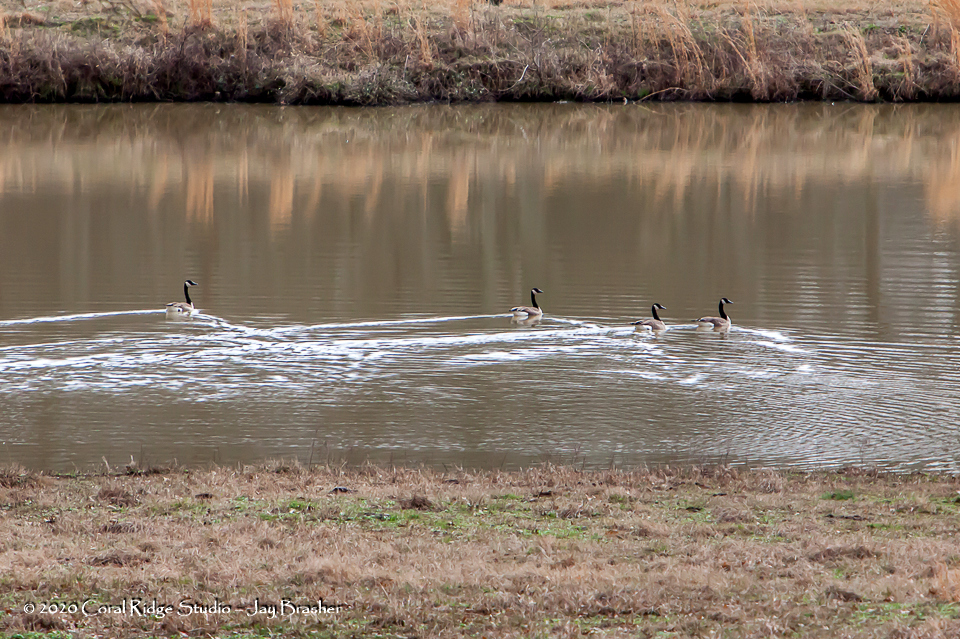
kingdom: Animalia
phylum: Chordata
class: Aves
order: Anseriformes
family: Anatidae
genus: Branta
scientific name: Branta canadensis
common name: Canada goose
